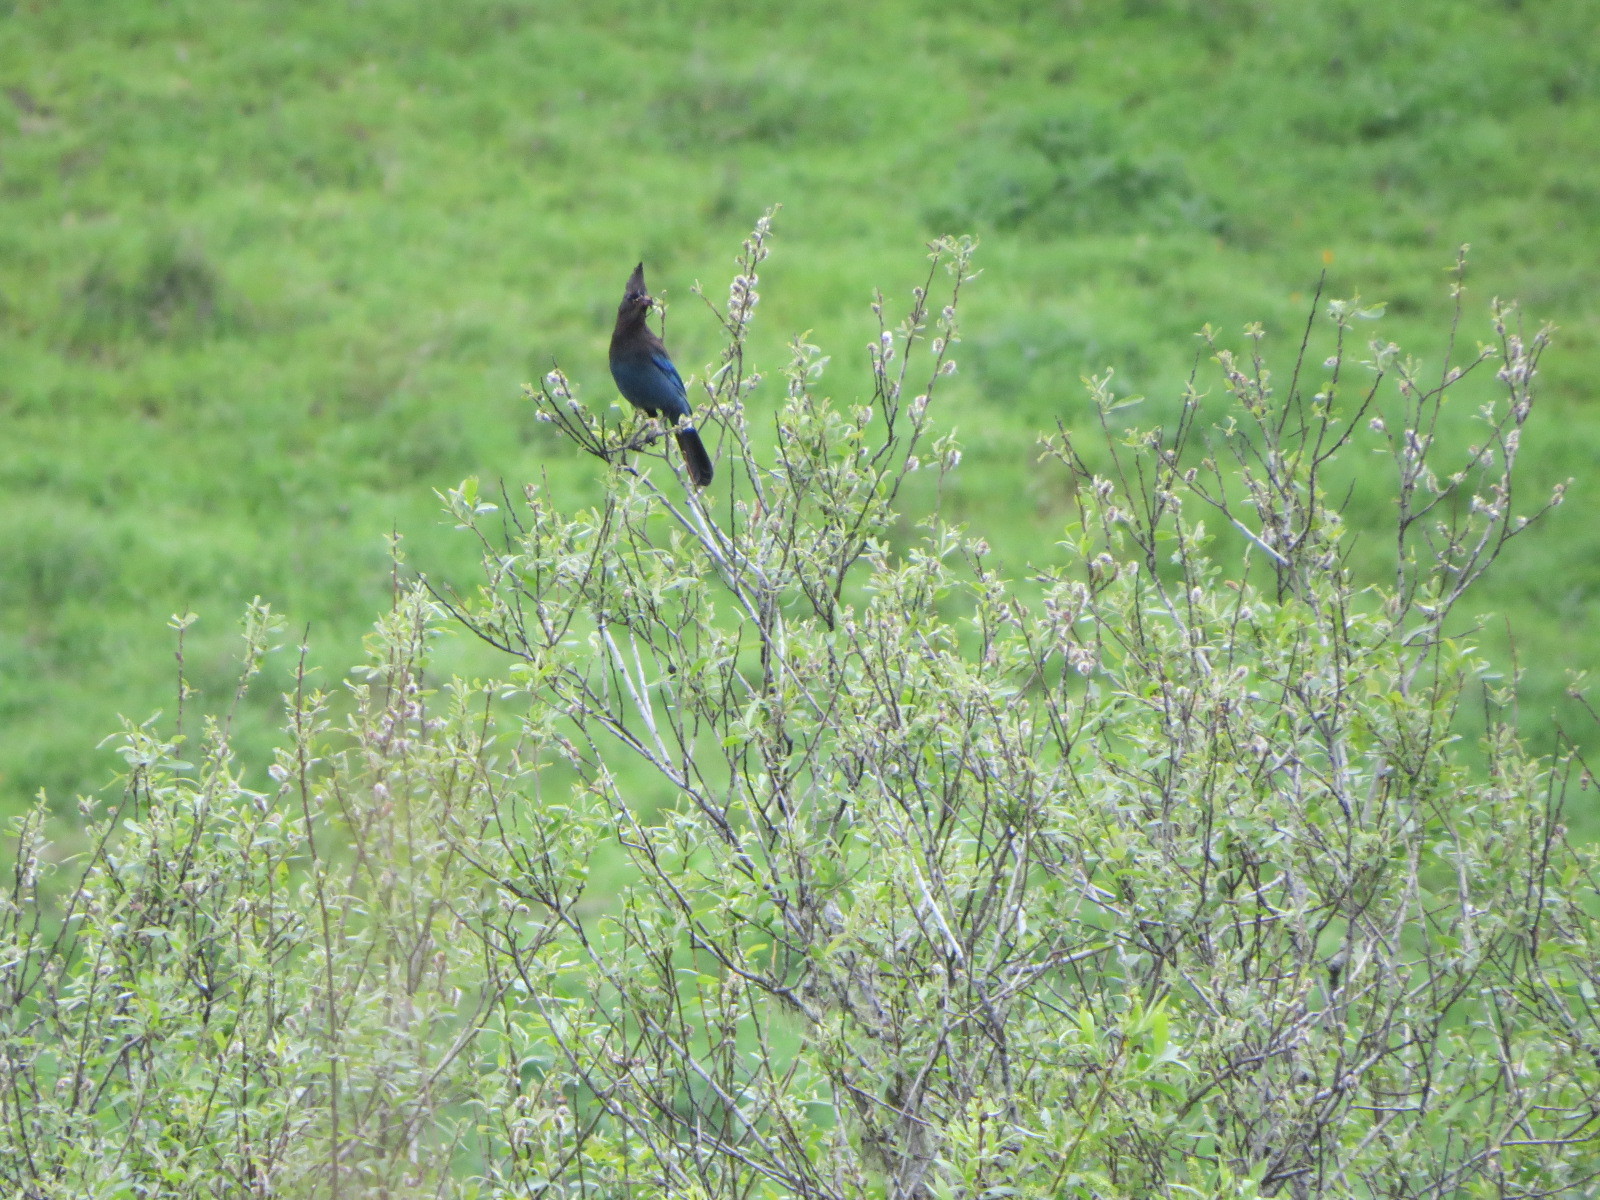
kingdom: Animalia
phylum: Chordata
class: Aves
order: Passeriformes
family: Corvidae
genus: Cyanocitta
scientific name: Cyanocitta stelleri
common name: Steller's jay
